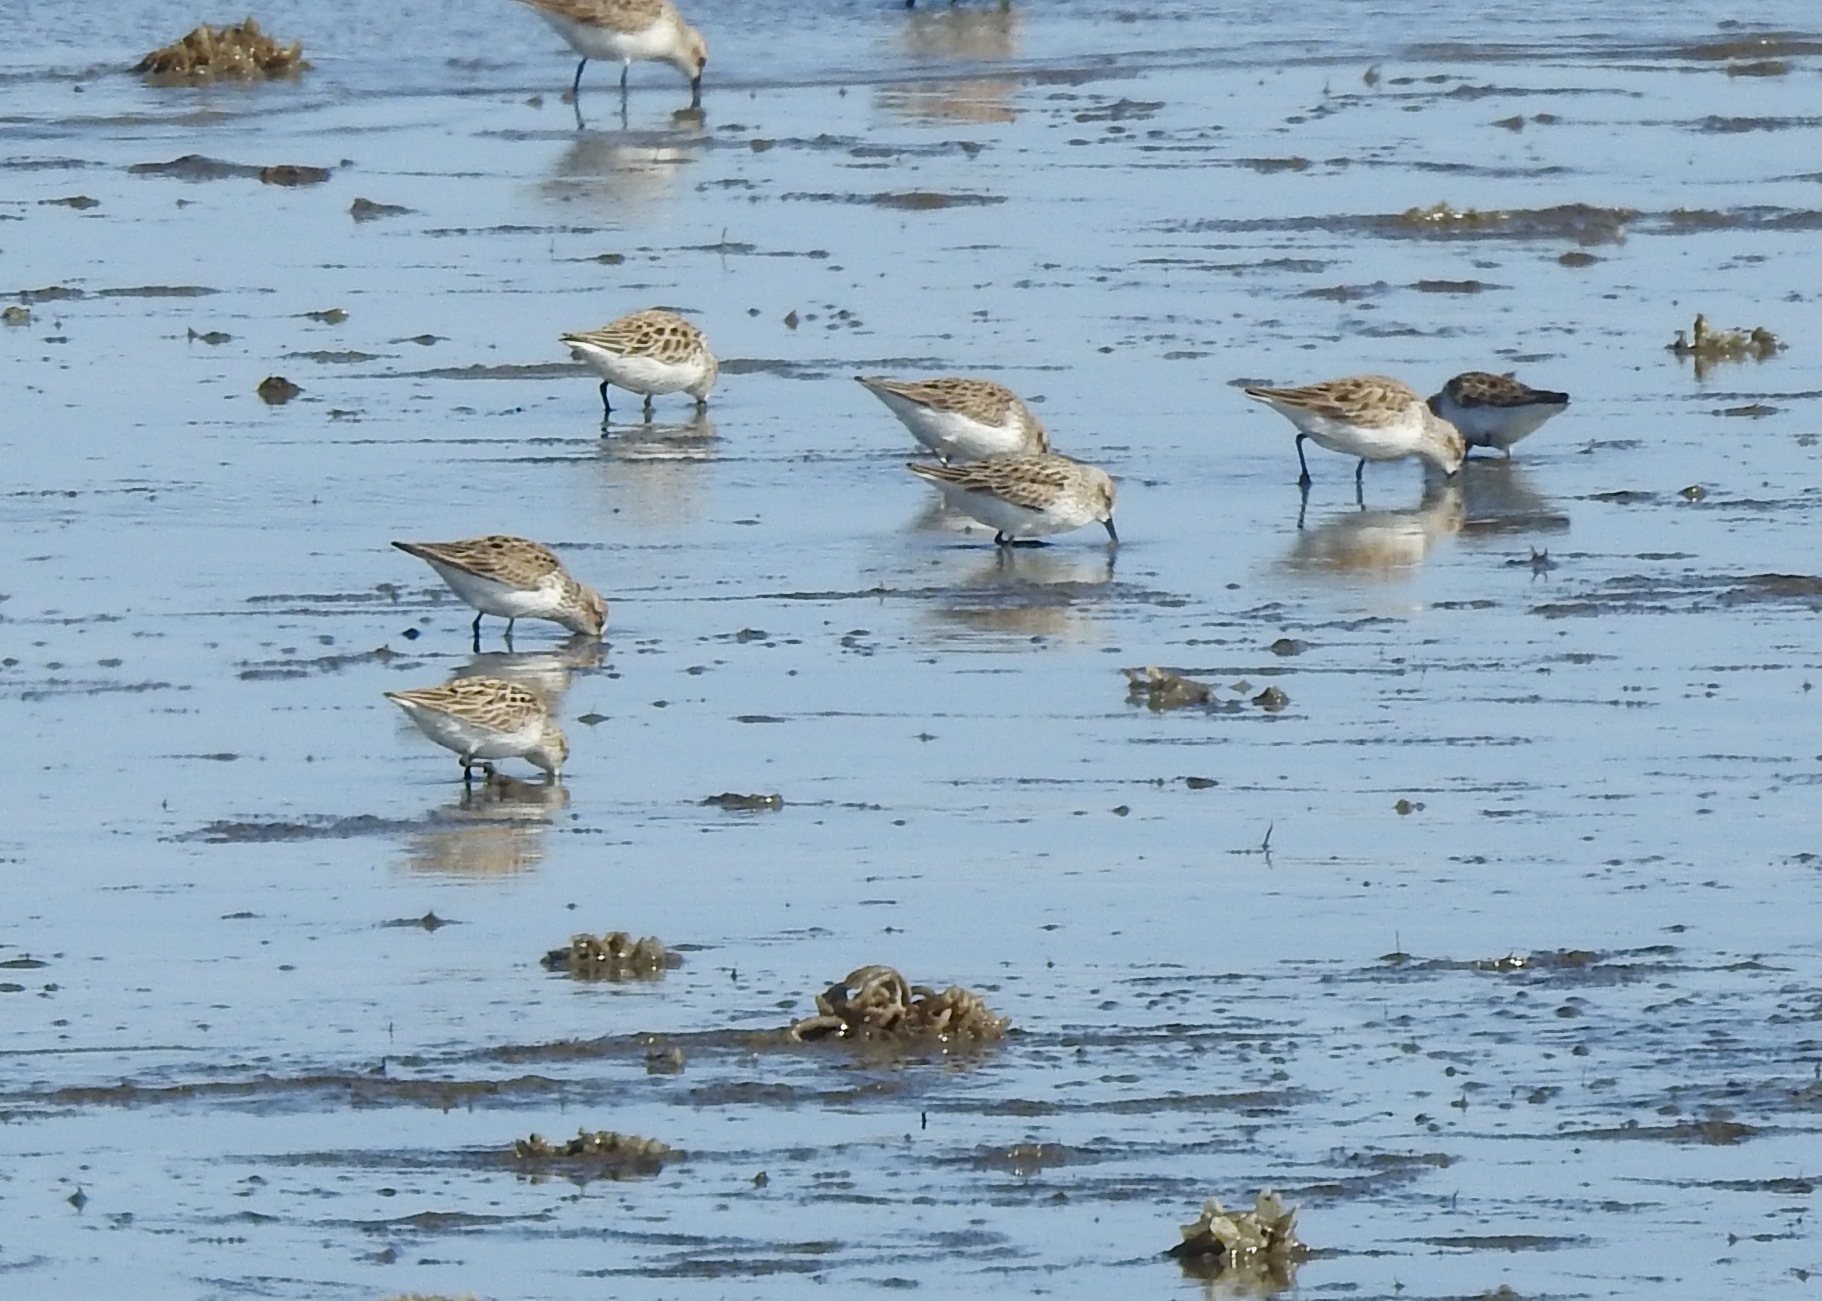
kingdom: Animalia
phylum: Chordata
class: Aves
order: Charadriiformes
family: Scolopacidae
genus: Calidris
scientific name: Calidris pusilla
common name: Semipalmated sandpiper
